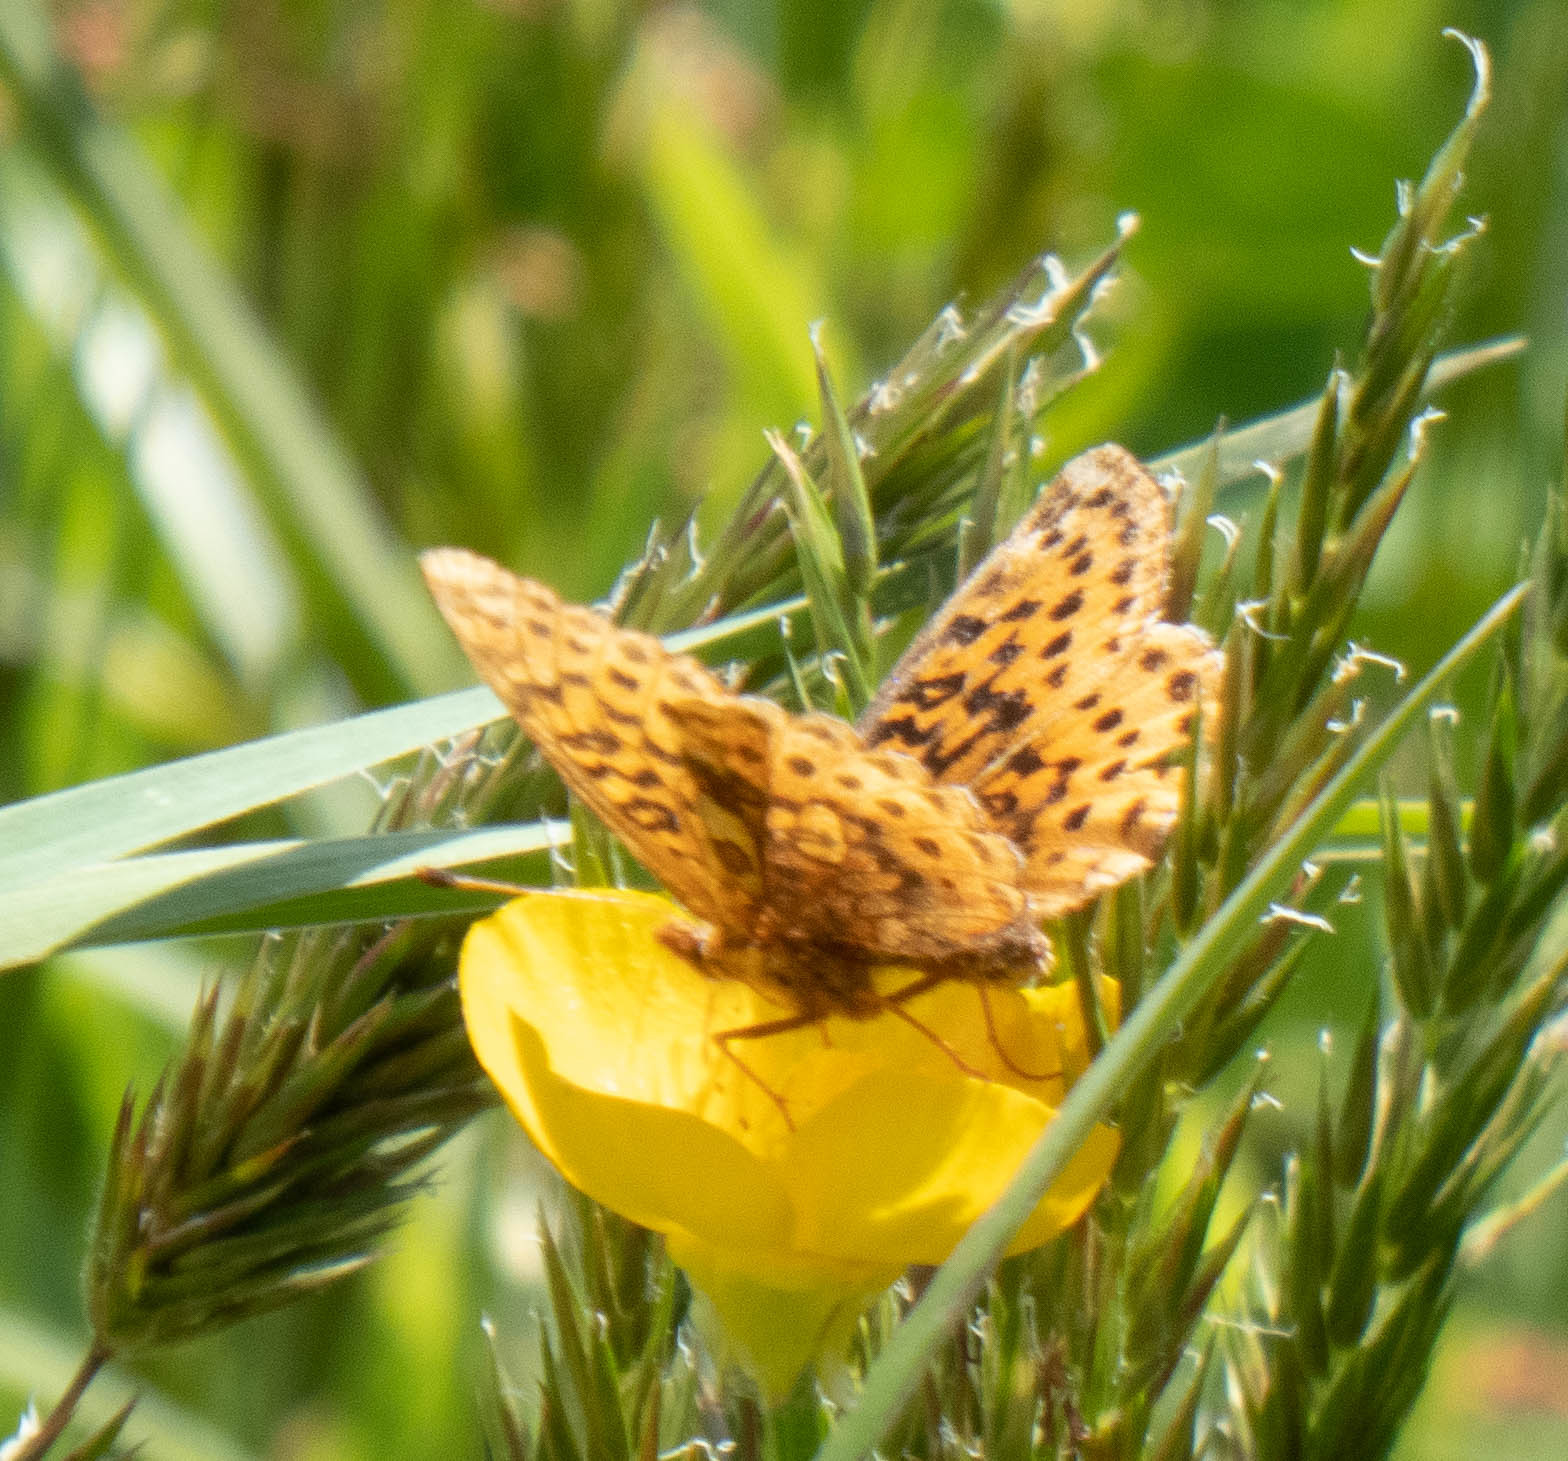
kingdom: Animalia
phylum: Arthropoda
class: Insecta
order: Lepidoptera
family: Nymphalidae
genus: Clossiana
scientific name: Clossiana toddi
